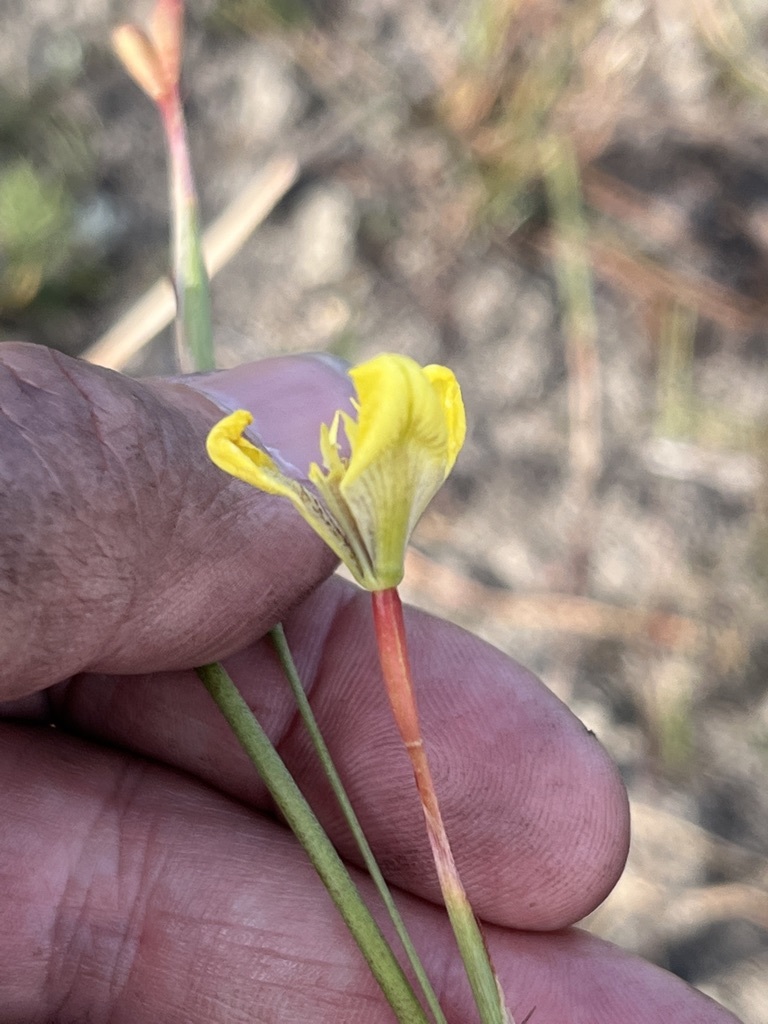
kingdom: Plantae
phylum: Tracheophyta
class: Liliopsida
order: Asparagales
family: Iridaceae
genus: Moraea
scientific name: Moraea bellendenii
